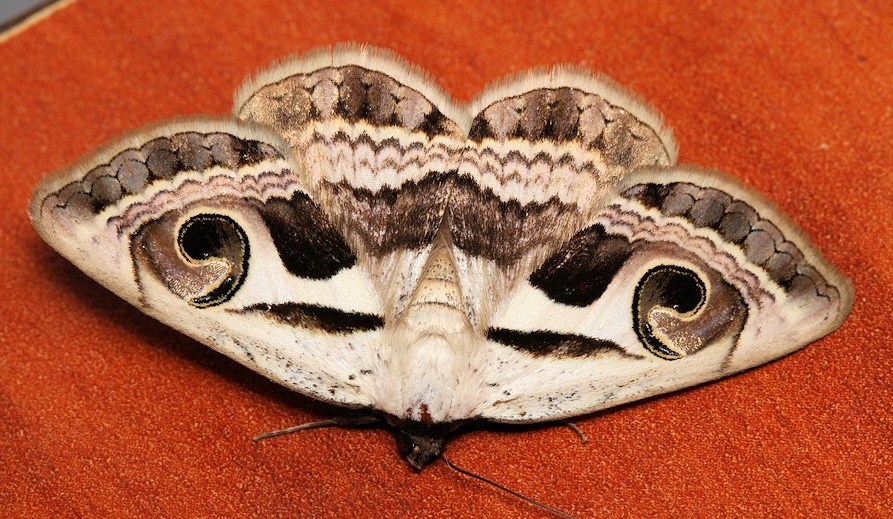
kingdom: Animalia
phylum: Arthropoda
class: Insecta
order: Lepidoptera
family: Erebidae
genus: Cometaster
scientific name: Cometaster pyrula
